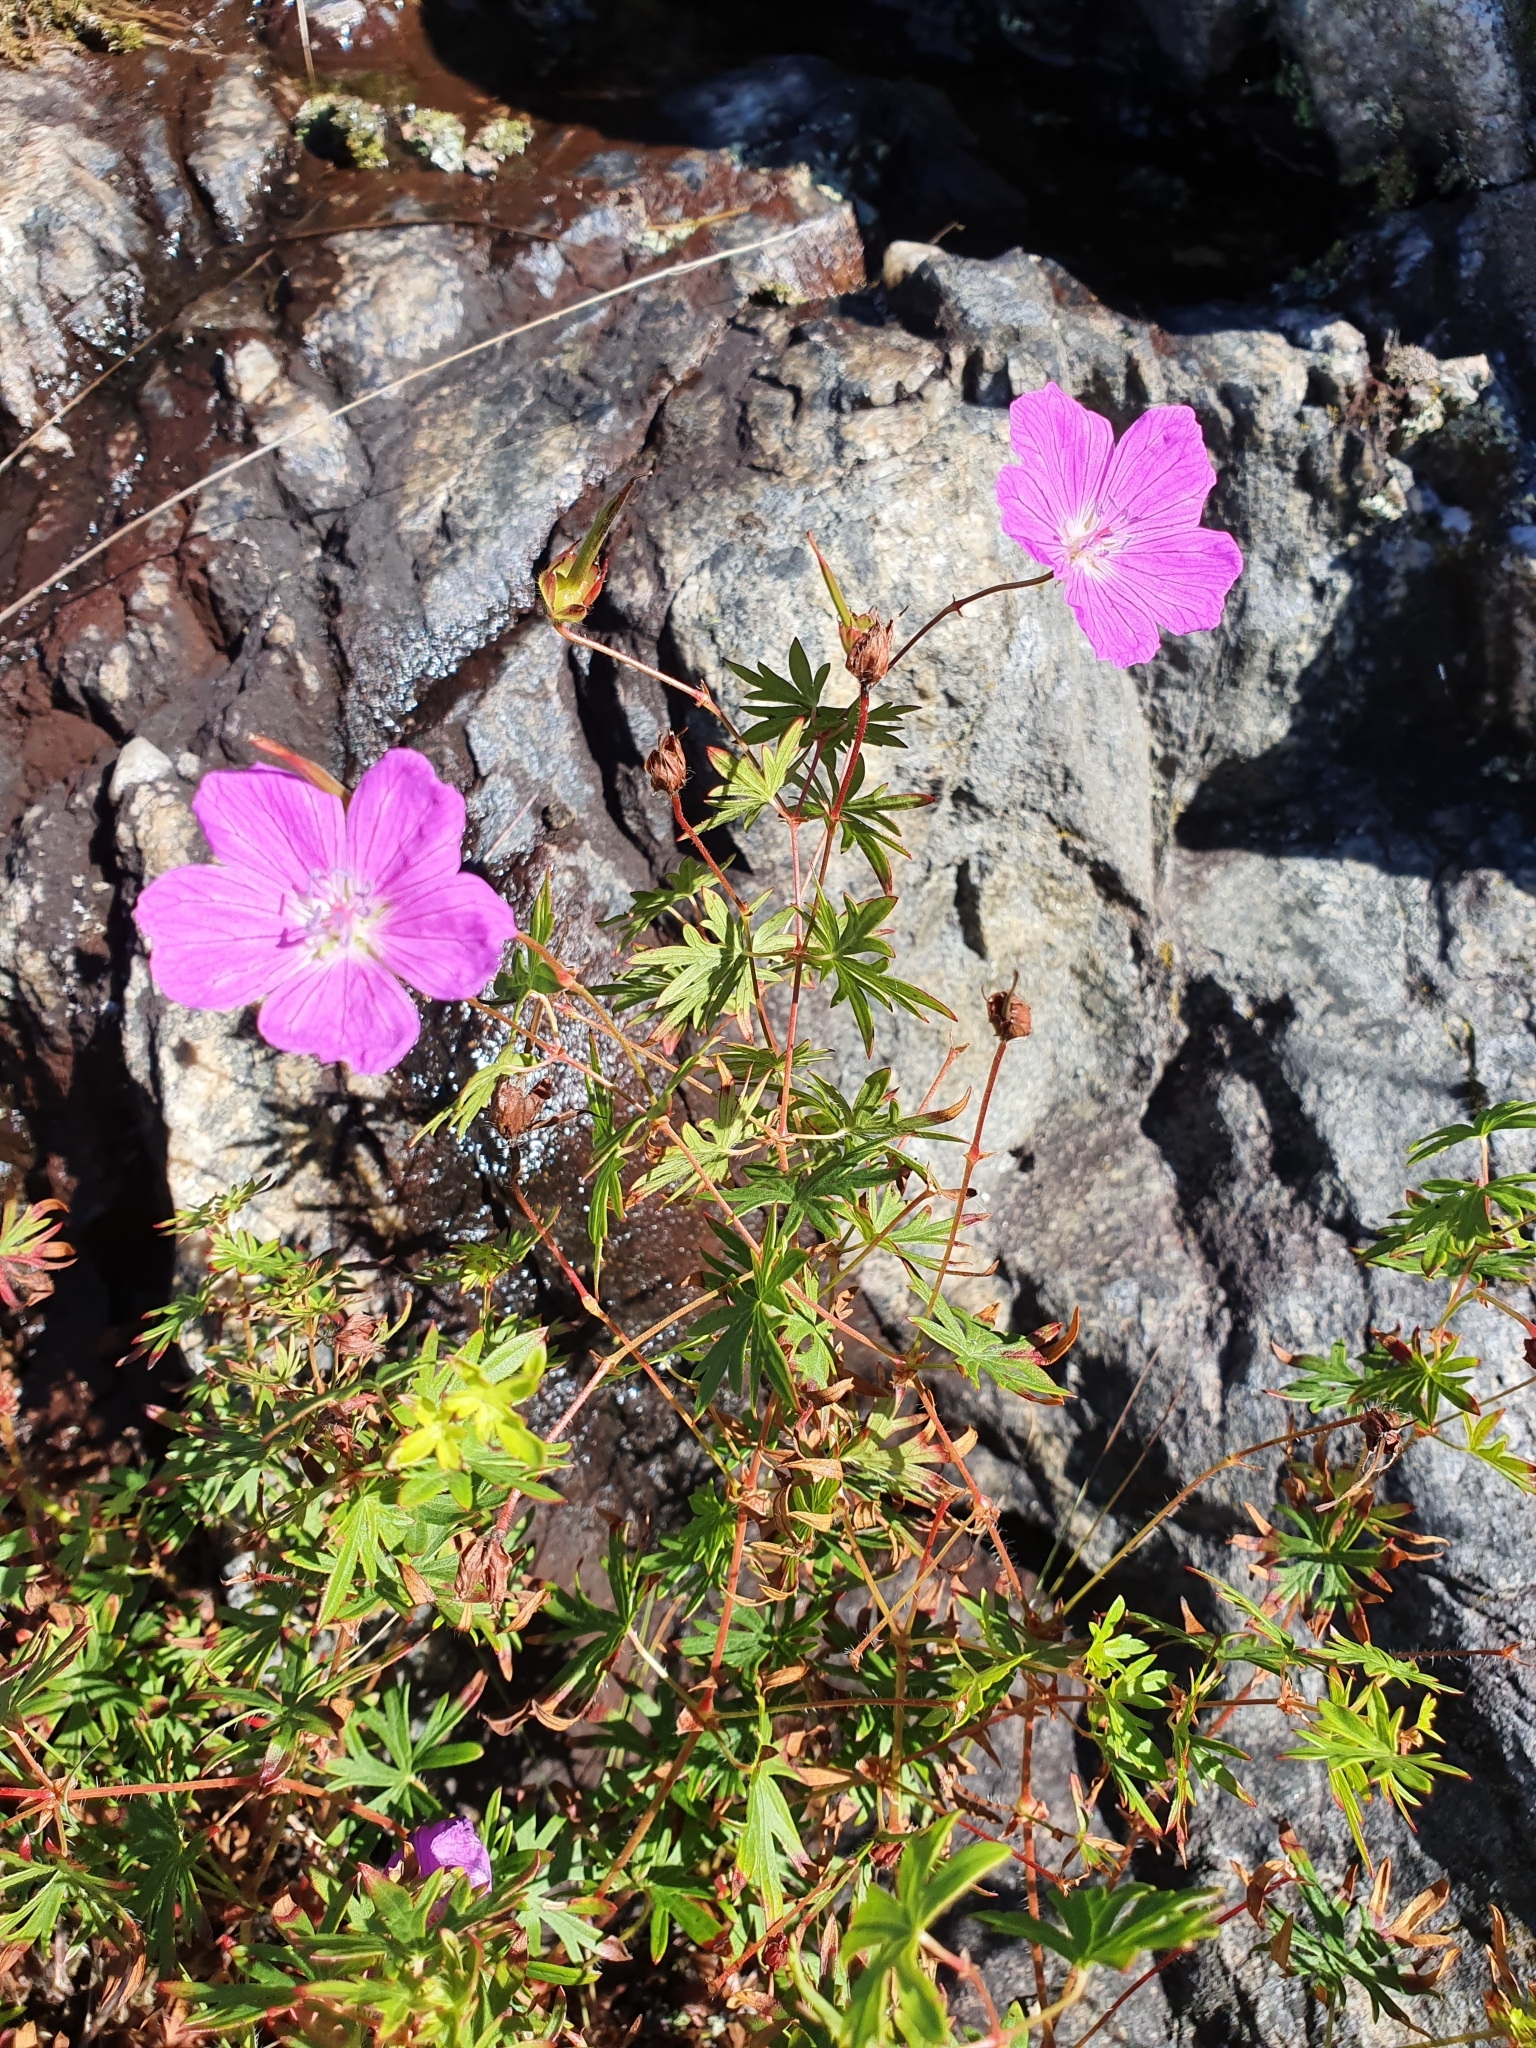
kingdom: Plantae
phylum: Tracheophyta
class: Magnoliopsida
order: Geraniales
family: Geraniaceae
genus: Geranium
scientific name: Geranium sanguineum
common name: Bloody crane's-bill
